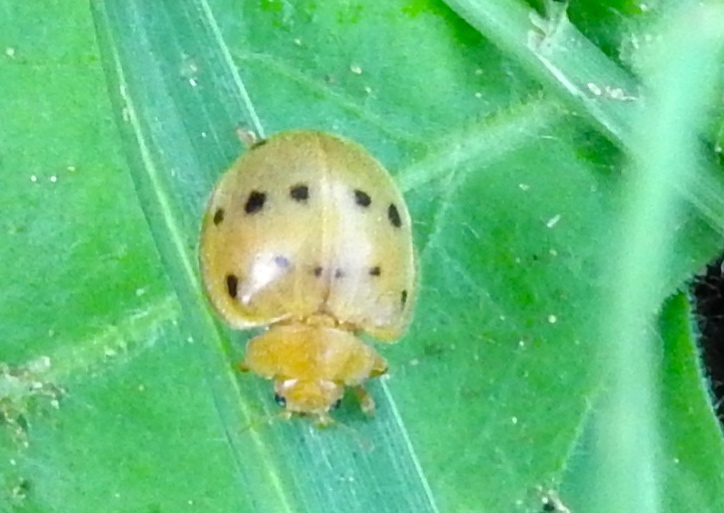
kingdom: Animalia
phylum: Arthropoda
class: Insecta
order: Coleoptera
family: Coccinellidae
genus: Epilachna
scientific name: Epilachna
